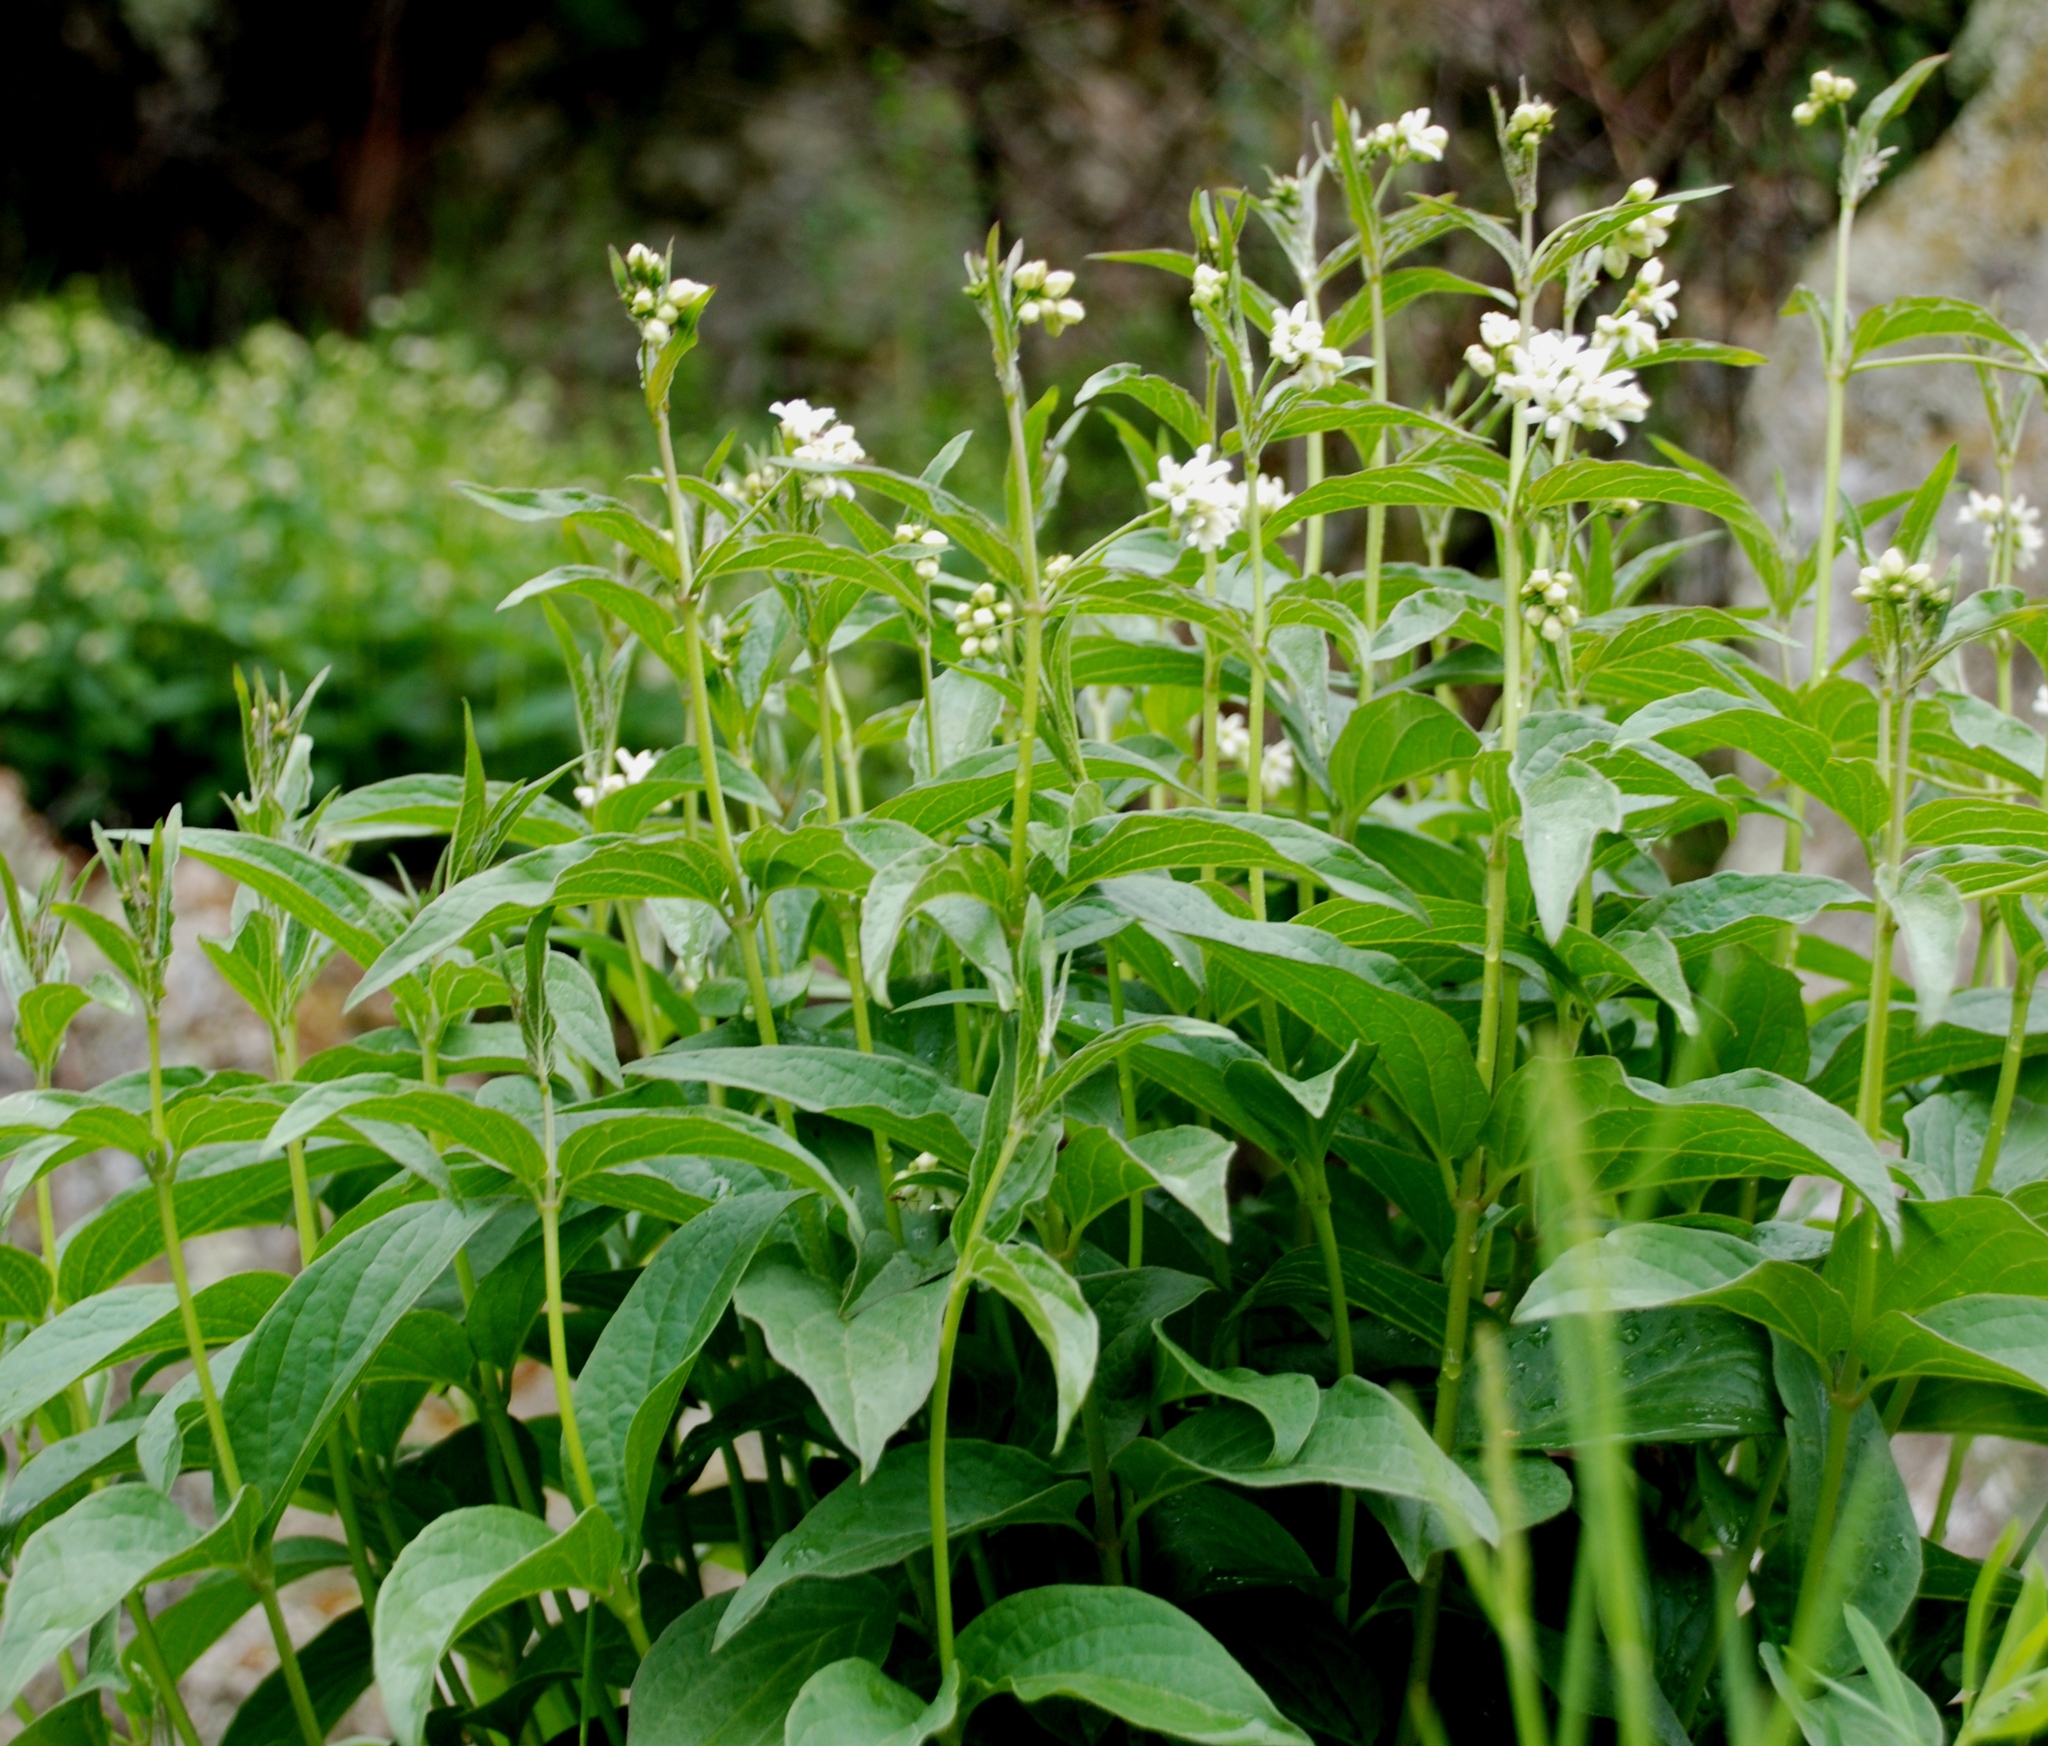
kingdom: Plantae
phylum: Tracheophyta
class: Magnoliopsida
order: Gentianales
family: Apocynaceae
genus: Vincetoxicum
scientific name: Vincetoxicum hirundinaria
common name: White swallowwort
